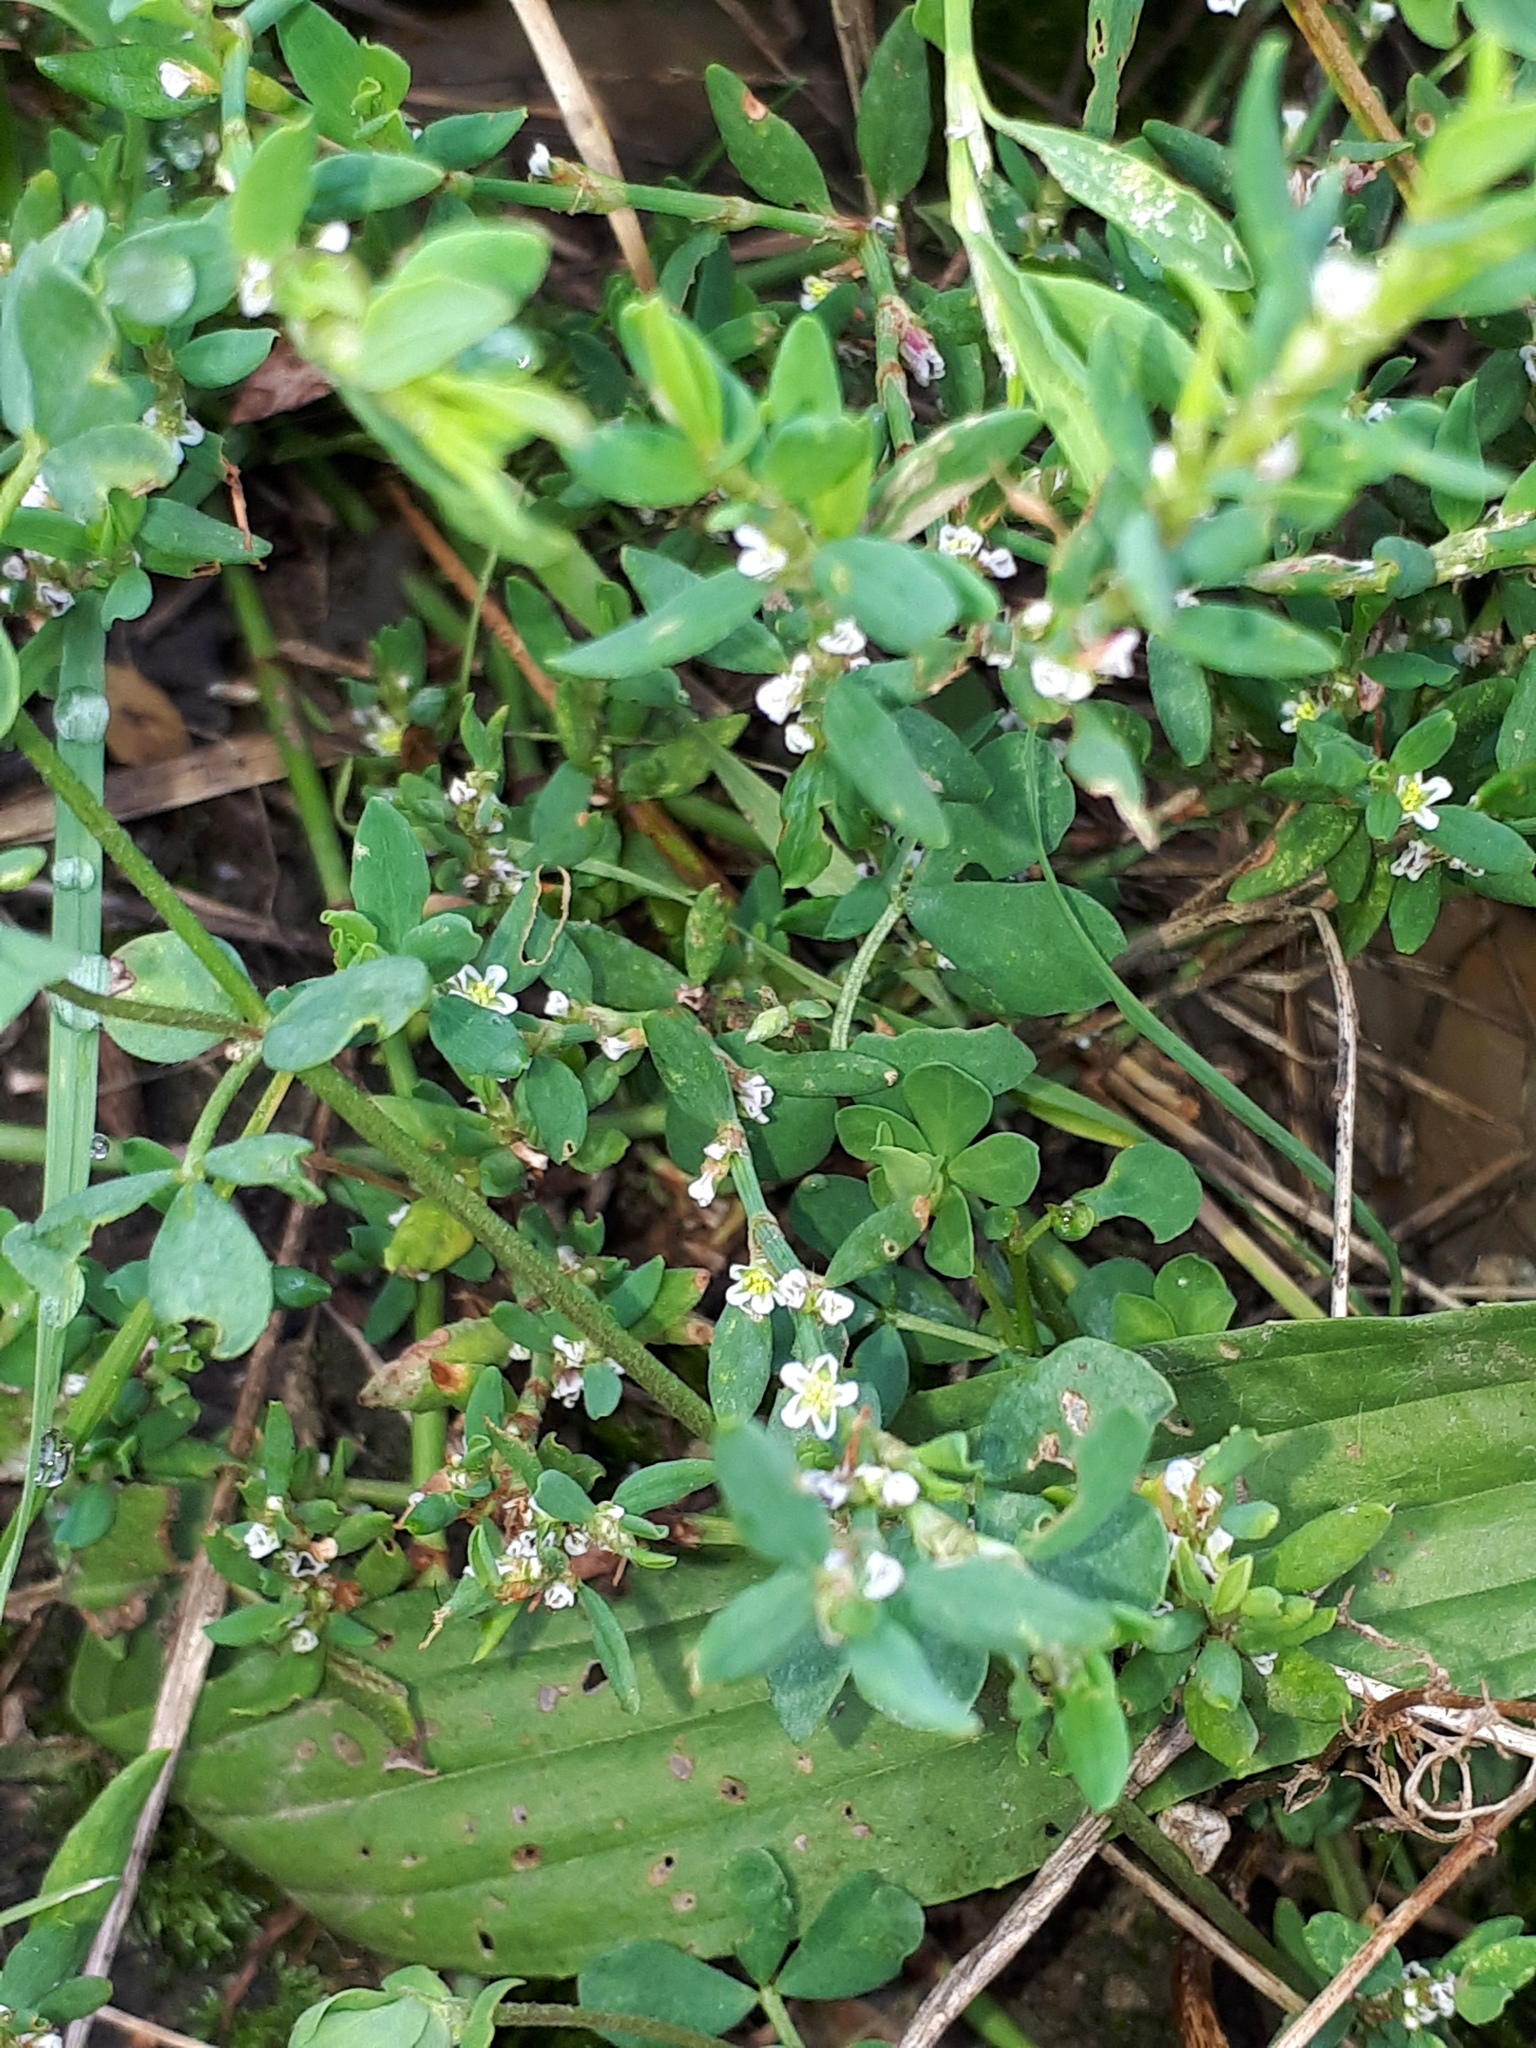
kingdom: Plantae
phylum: Tracheophyta
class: Magnoliopsida
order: Caryophyllales
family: Polygonaceae
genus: Polygonum
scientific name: Polygonum aviculare
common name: Prostrate knotweed
